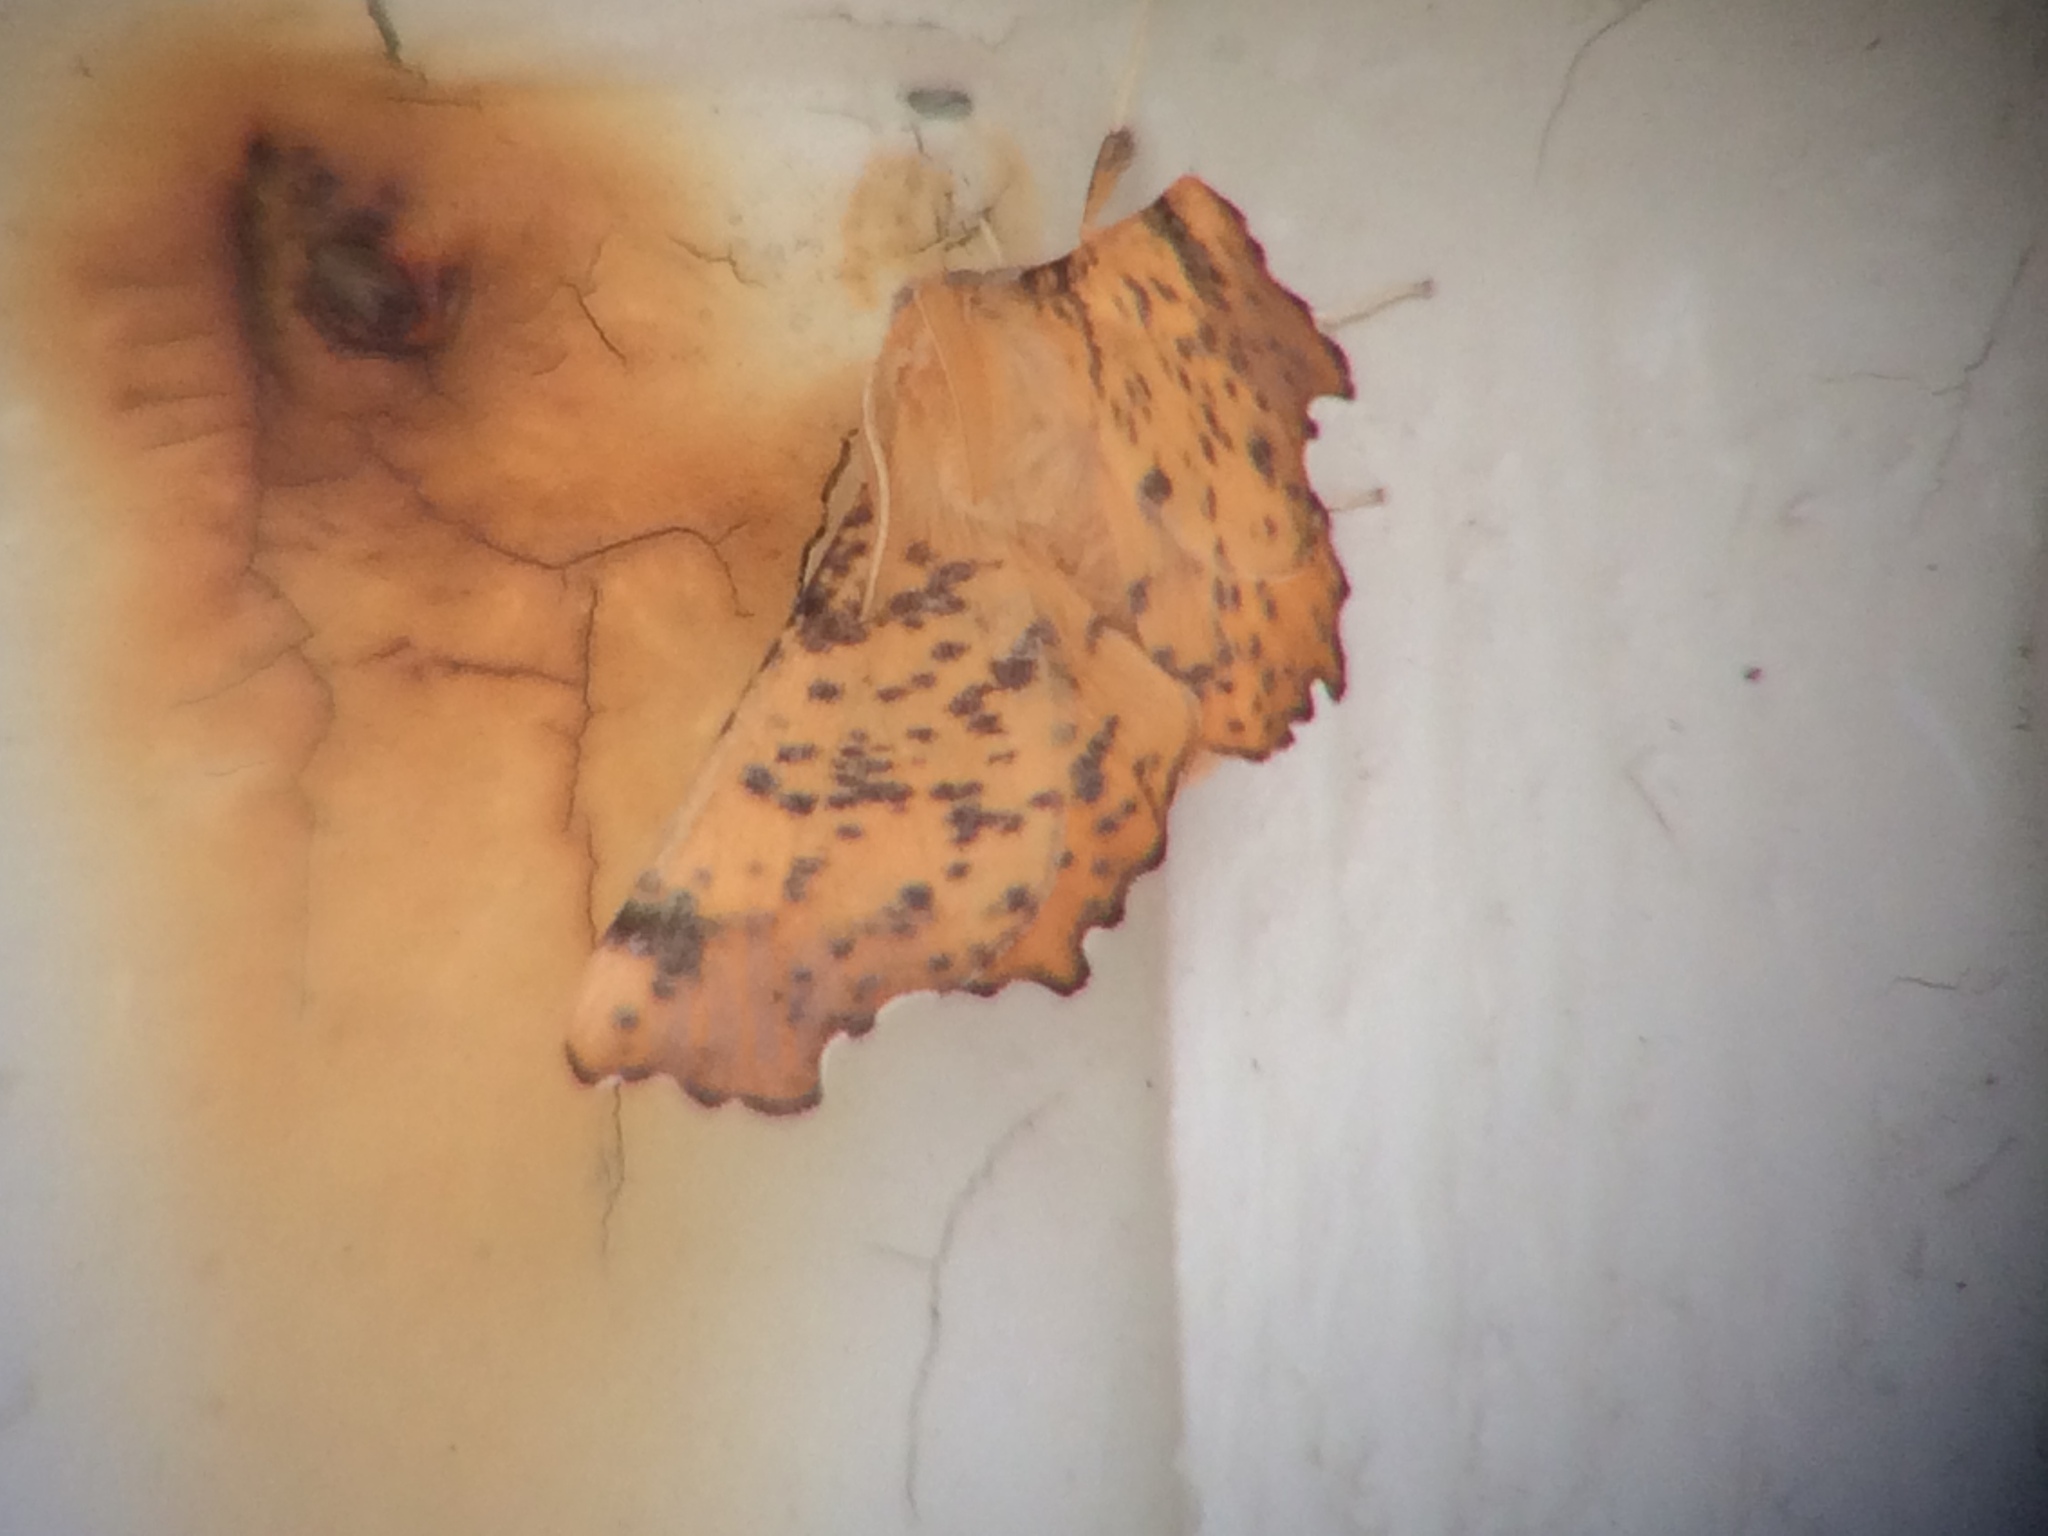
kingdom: Animalia
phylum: Arthropoda
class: Insecta
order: Lepidoptera
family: Geometridae
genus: Ennomos
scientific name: Ennomos magnaria
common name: Maple spanworm
